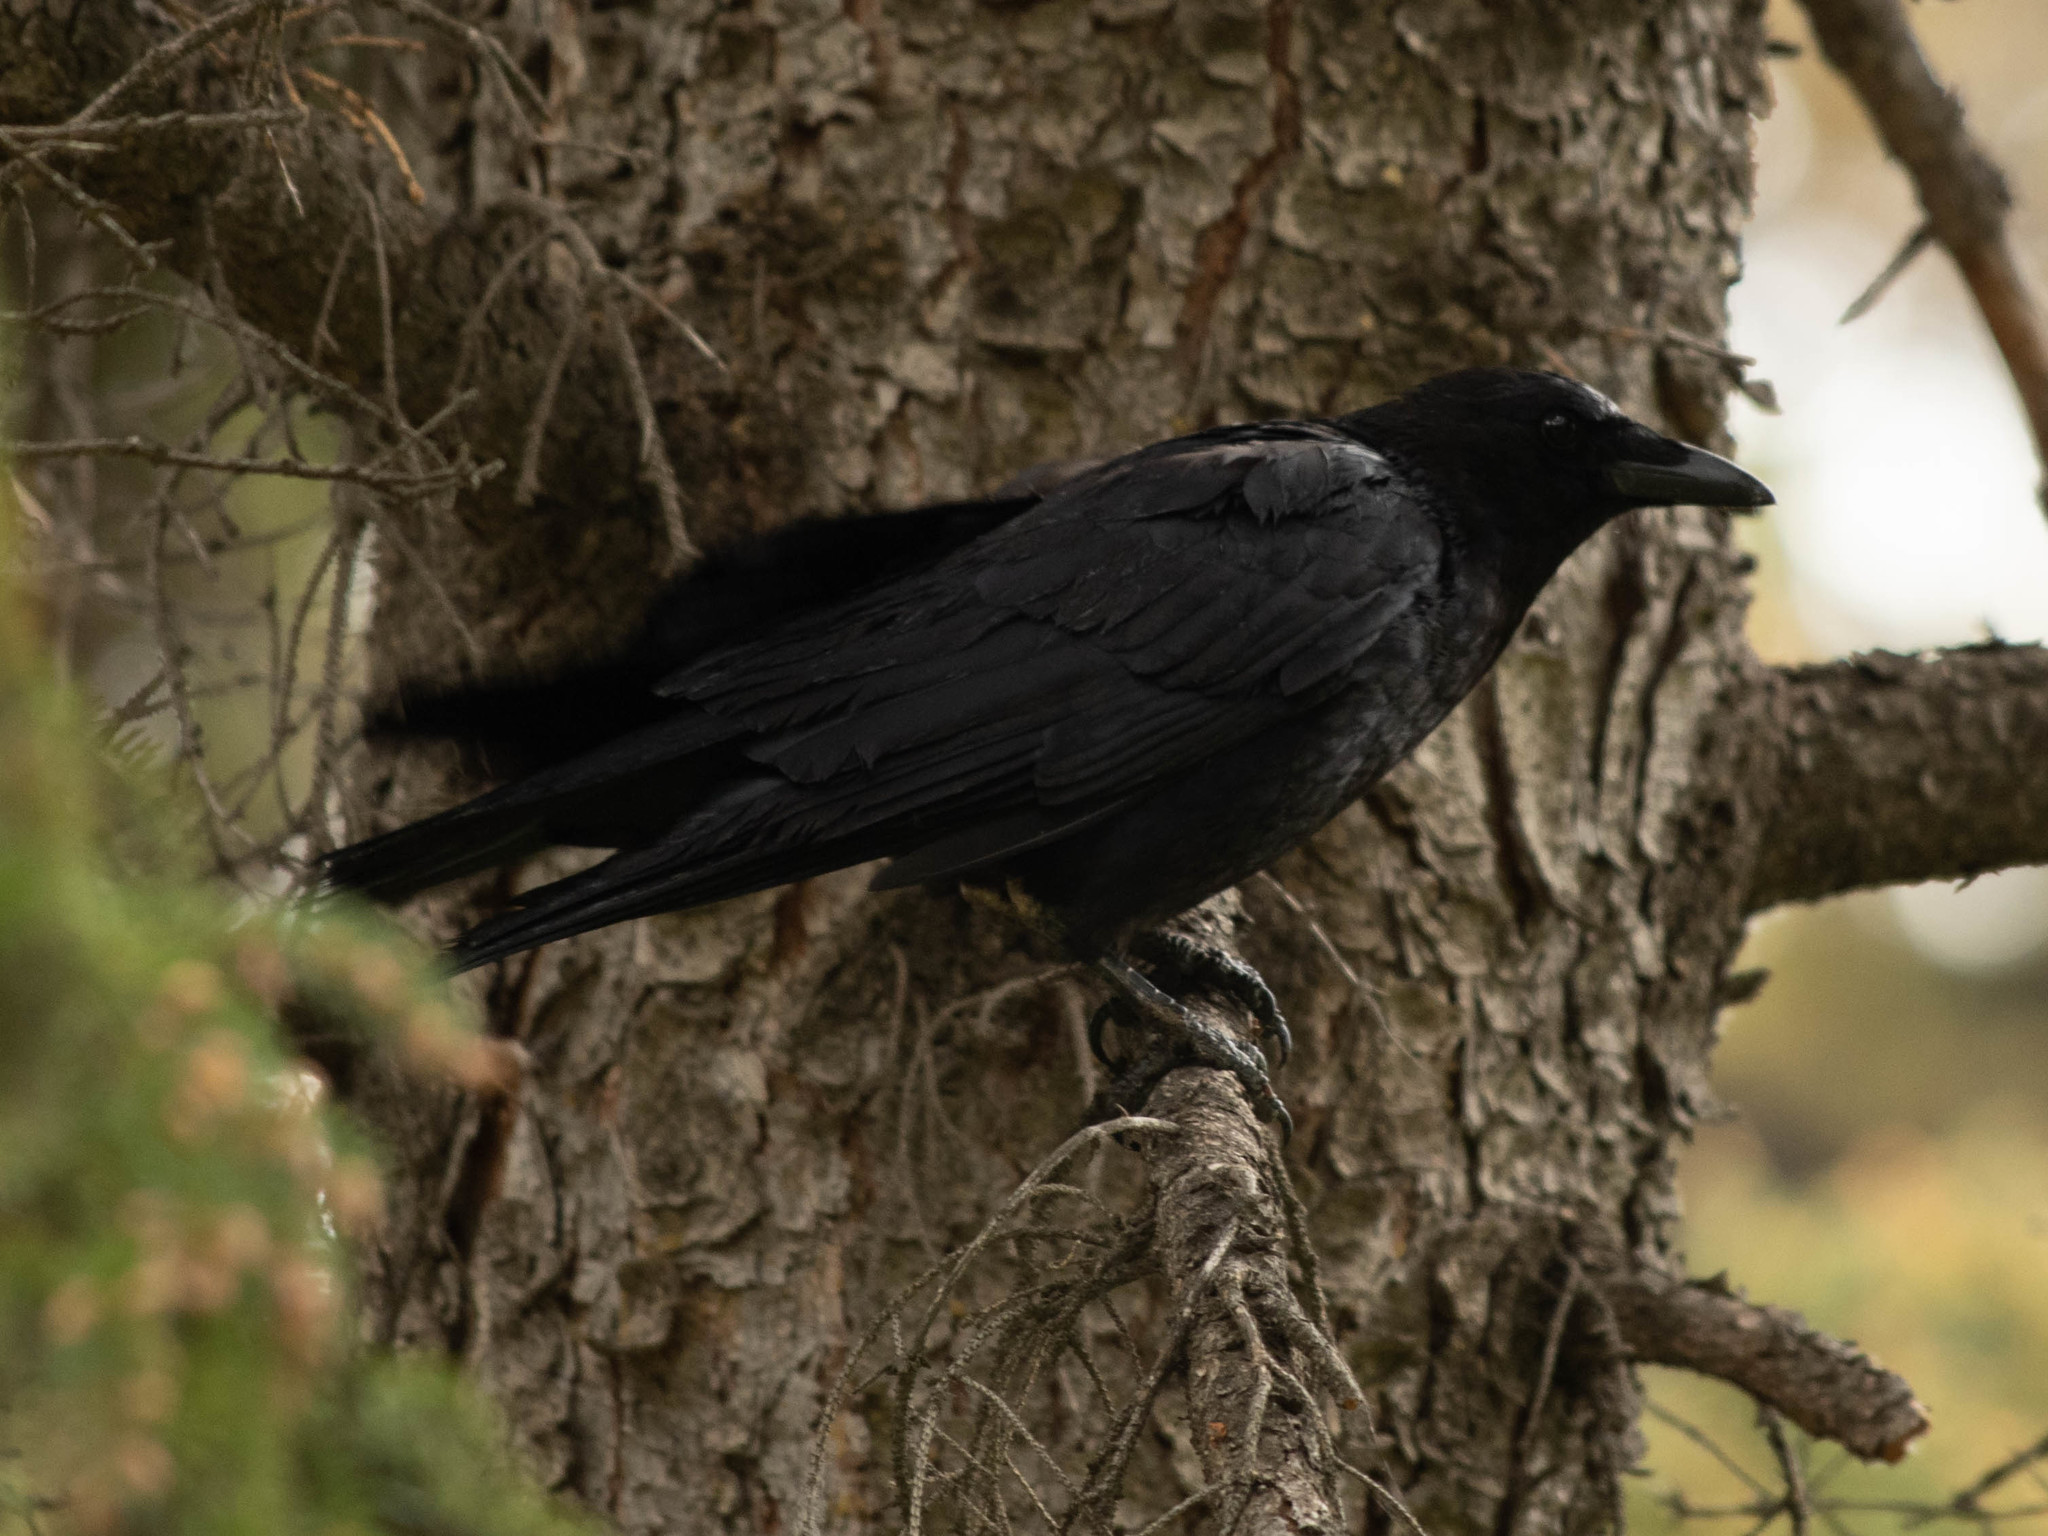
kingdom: Animalia
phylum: Chordata
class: Aves
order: Passeriformes
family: Corvidae
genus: Corvus
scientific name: Corvus brachyrhynchos
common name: American crow
